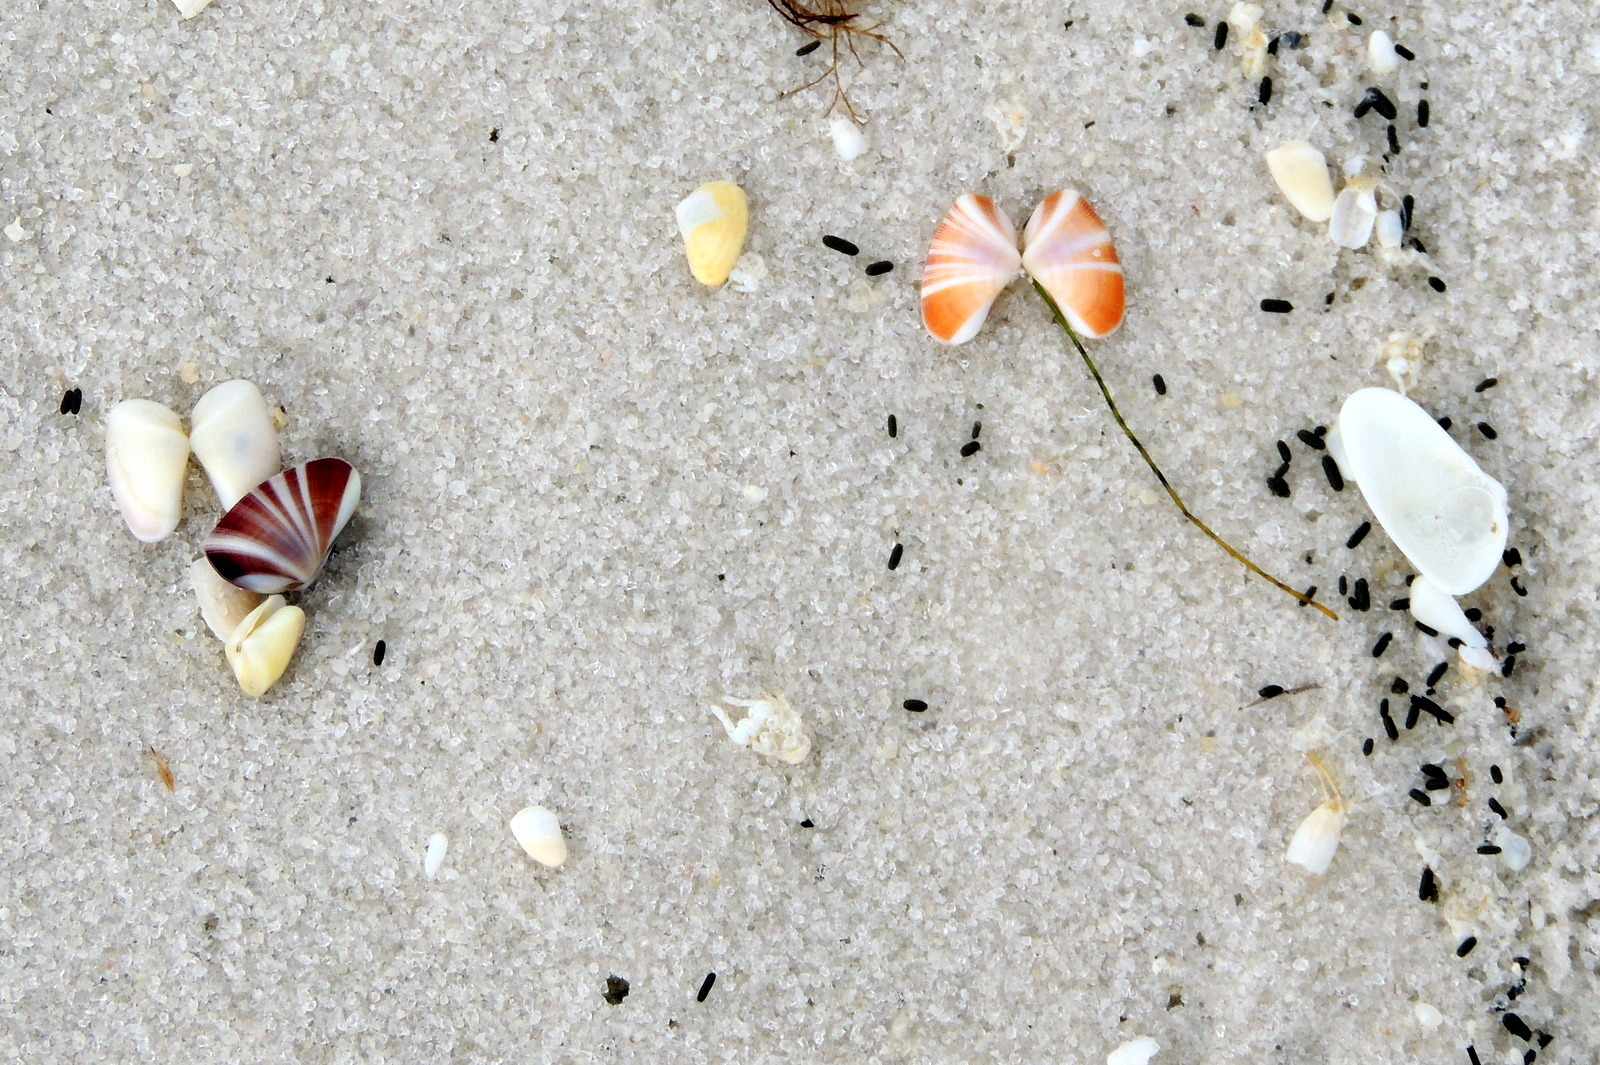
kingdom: Animalia
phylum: Mollusca
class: Bivalvia
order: Cardiida
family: Donacidae
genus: Donax
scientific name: Donax variabilis
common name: Butterfly shell
